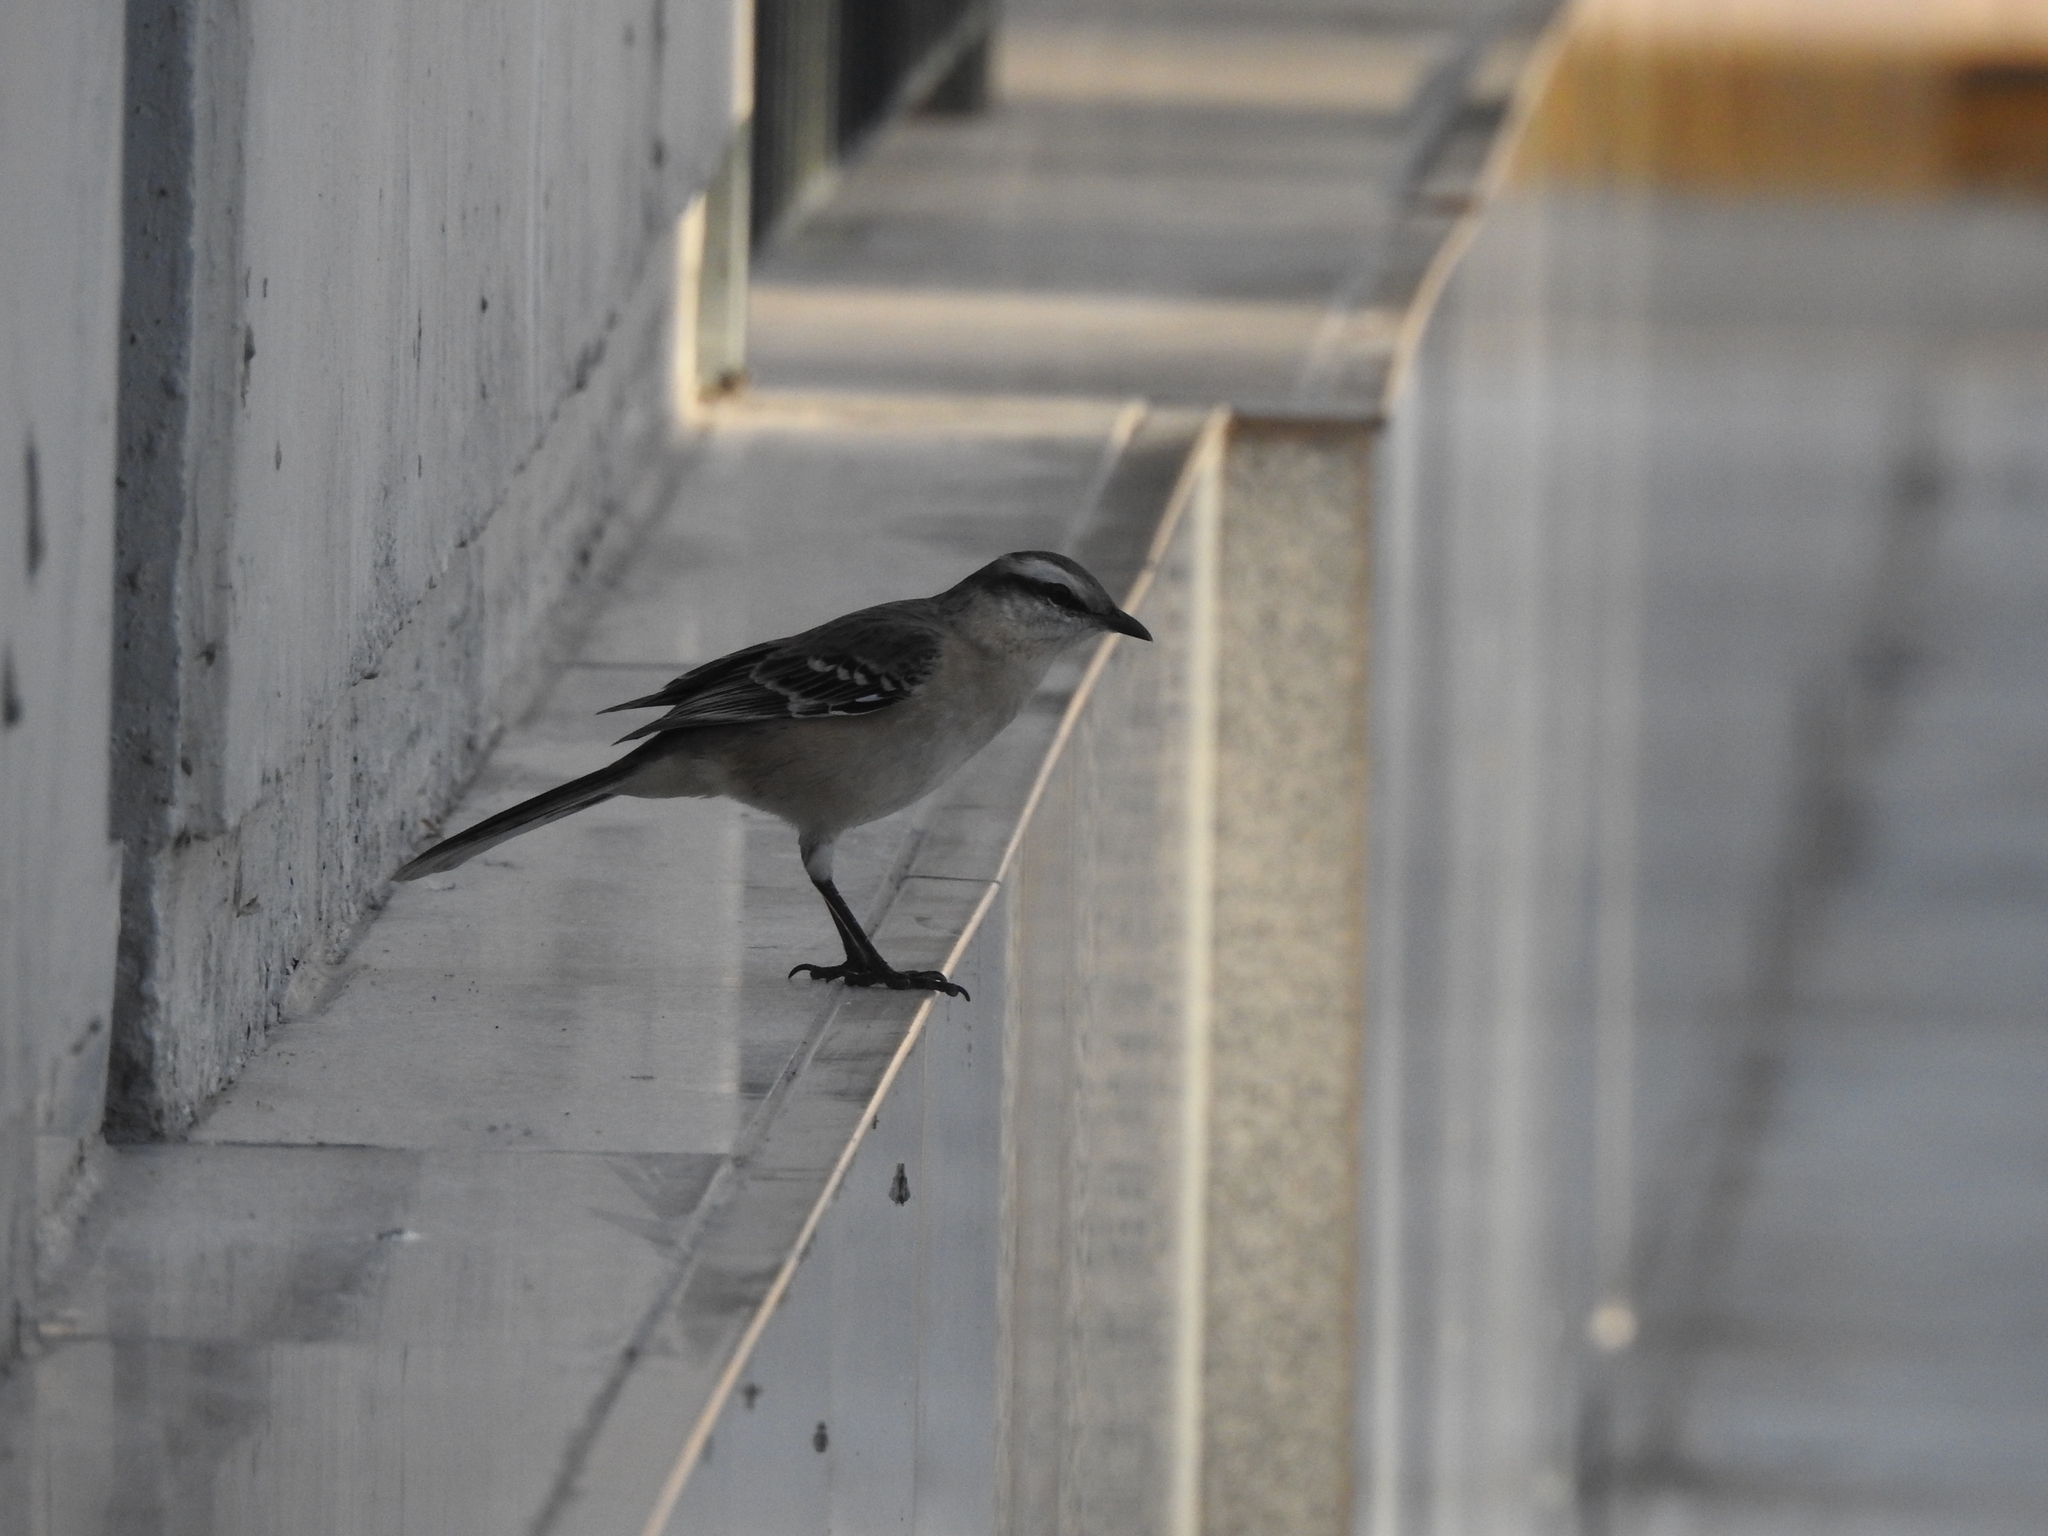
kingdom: Animalia
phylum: Chordata
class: Aves
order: Passeriformes
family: Mimidae
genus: Mimus
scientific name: Mimus saturninus
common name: Chalk-browed mockingbird
